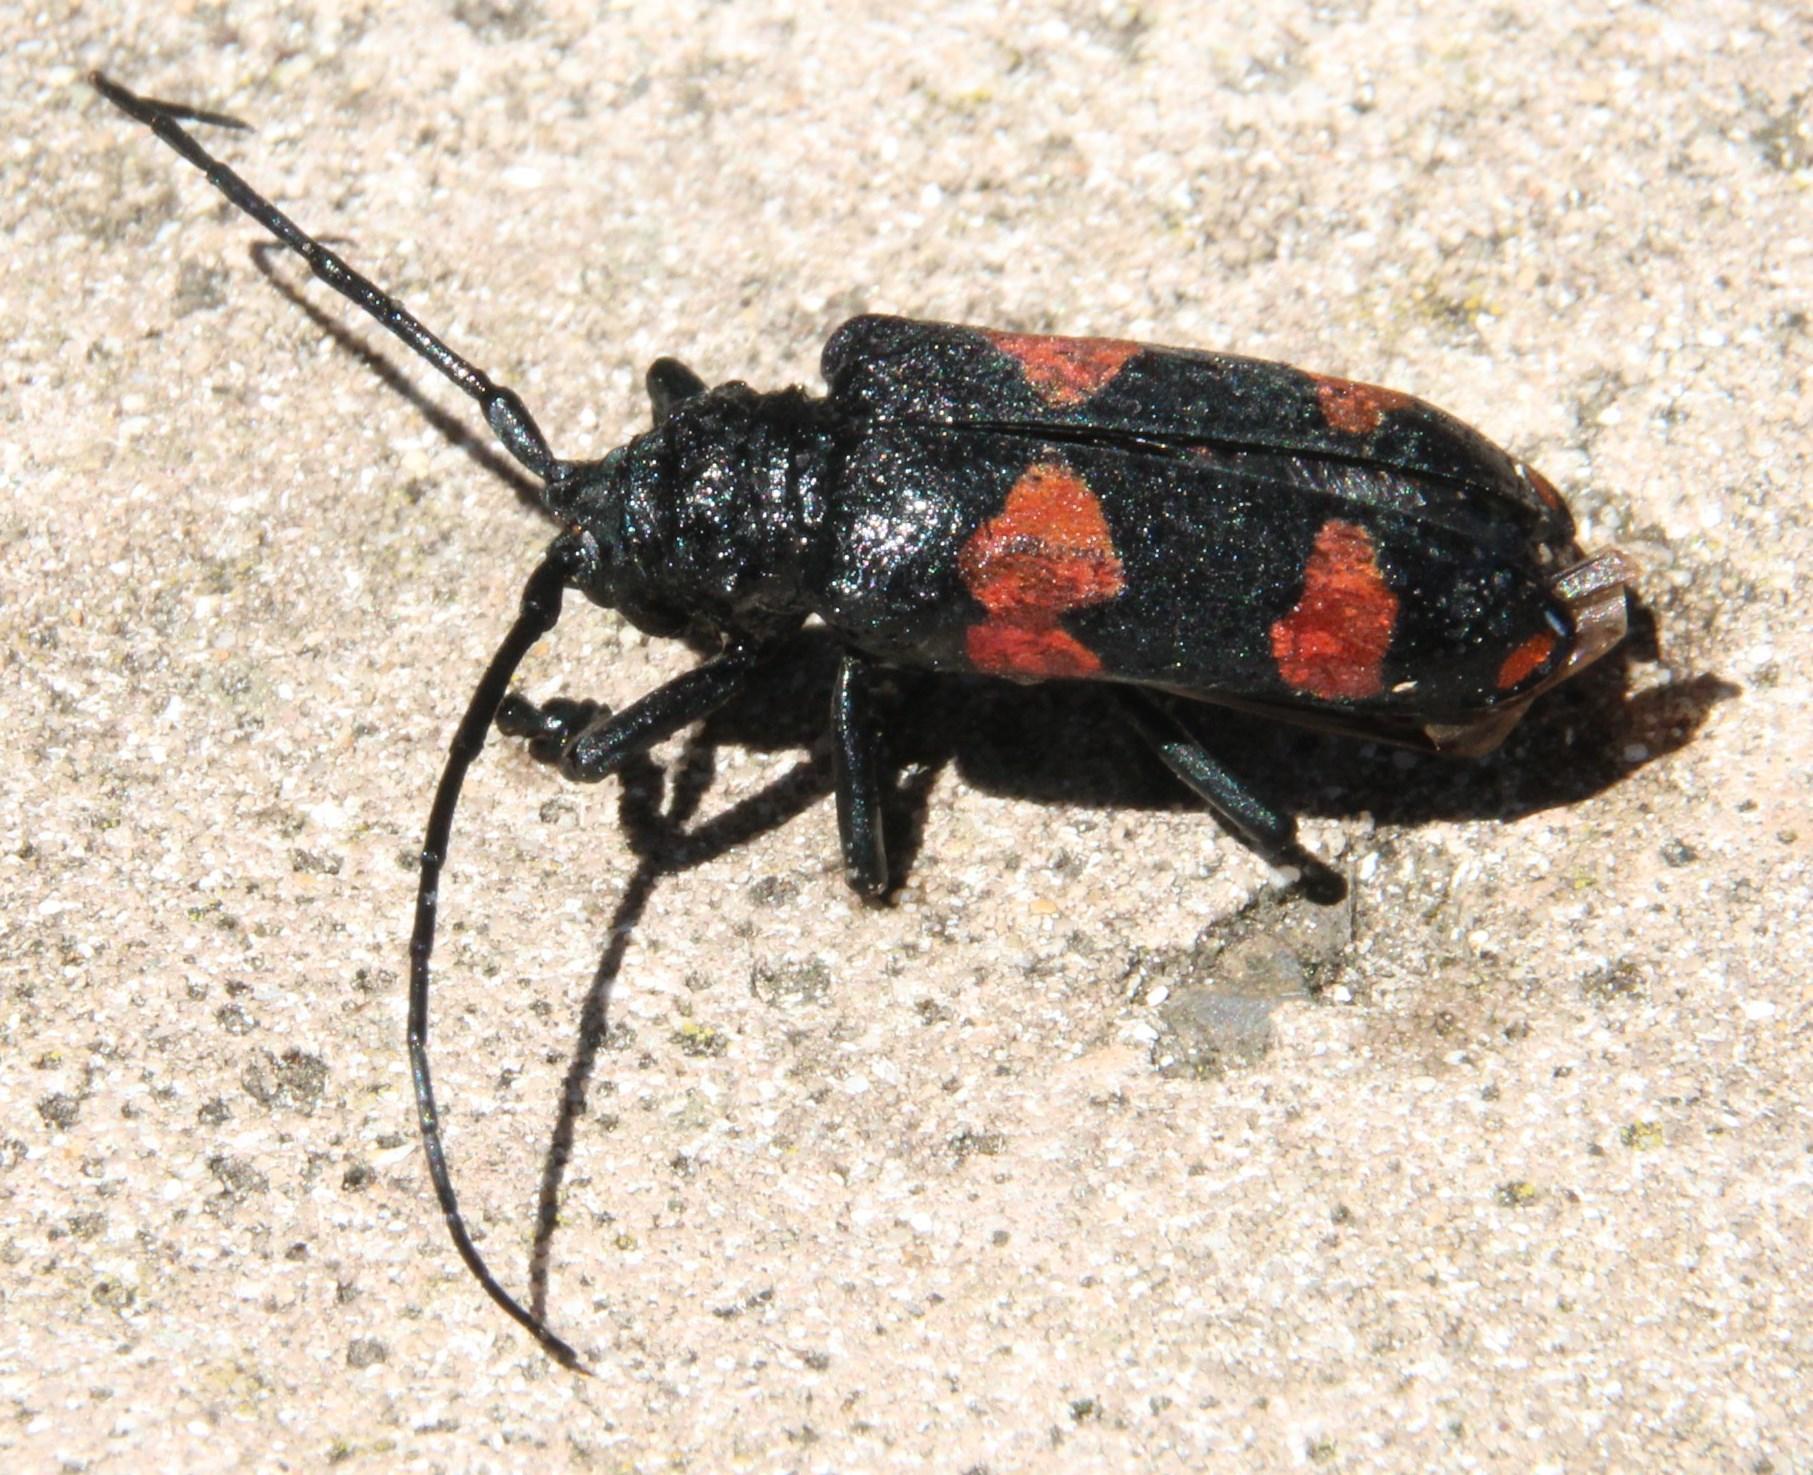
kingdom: Animalia
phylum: Arthropoda
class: Insecta
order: Coleoptera
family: Cerambycidae
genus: Ceroplesis
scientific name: Ceroplesis aethiops
